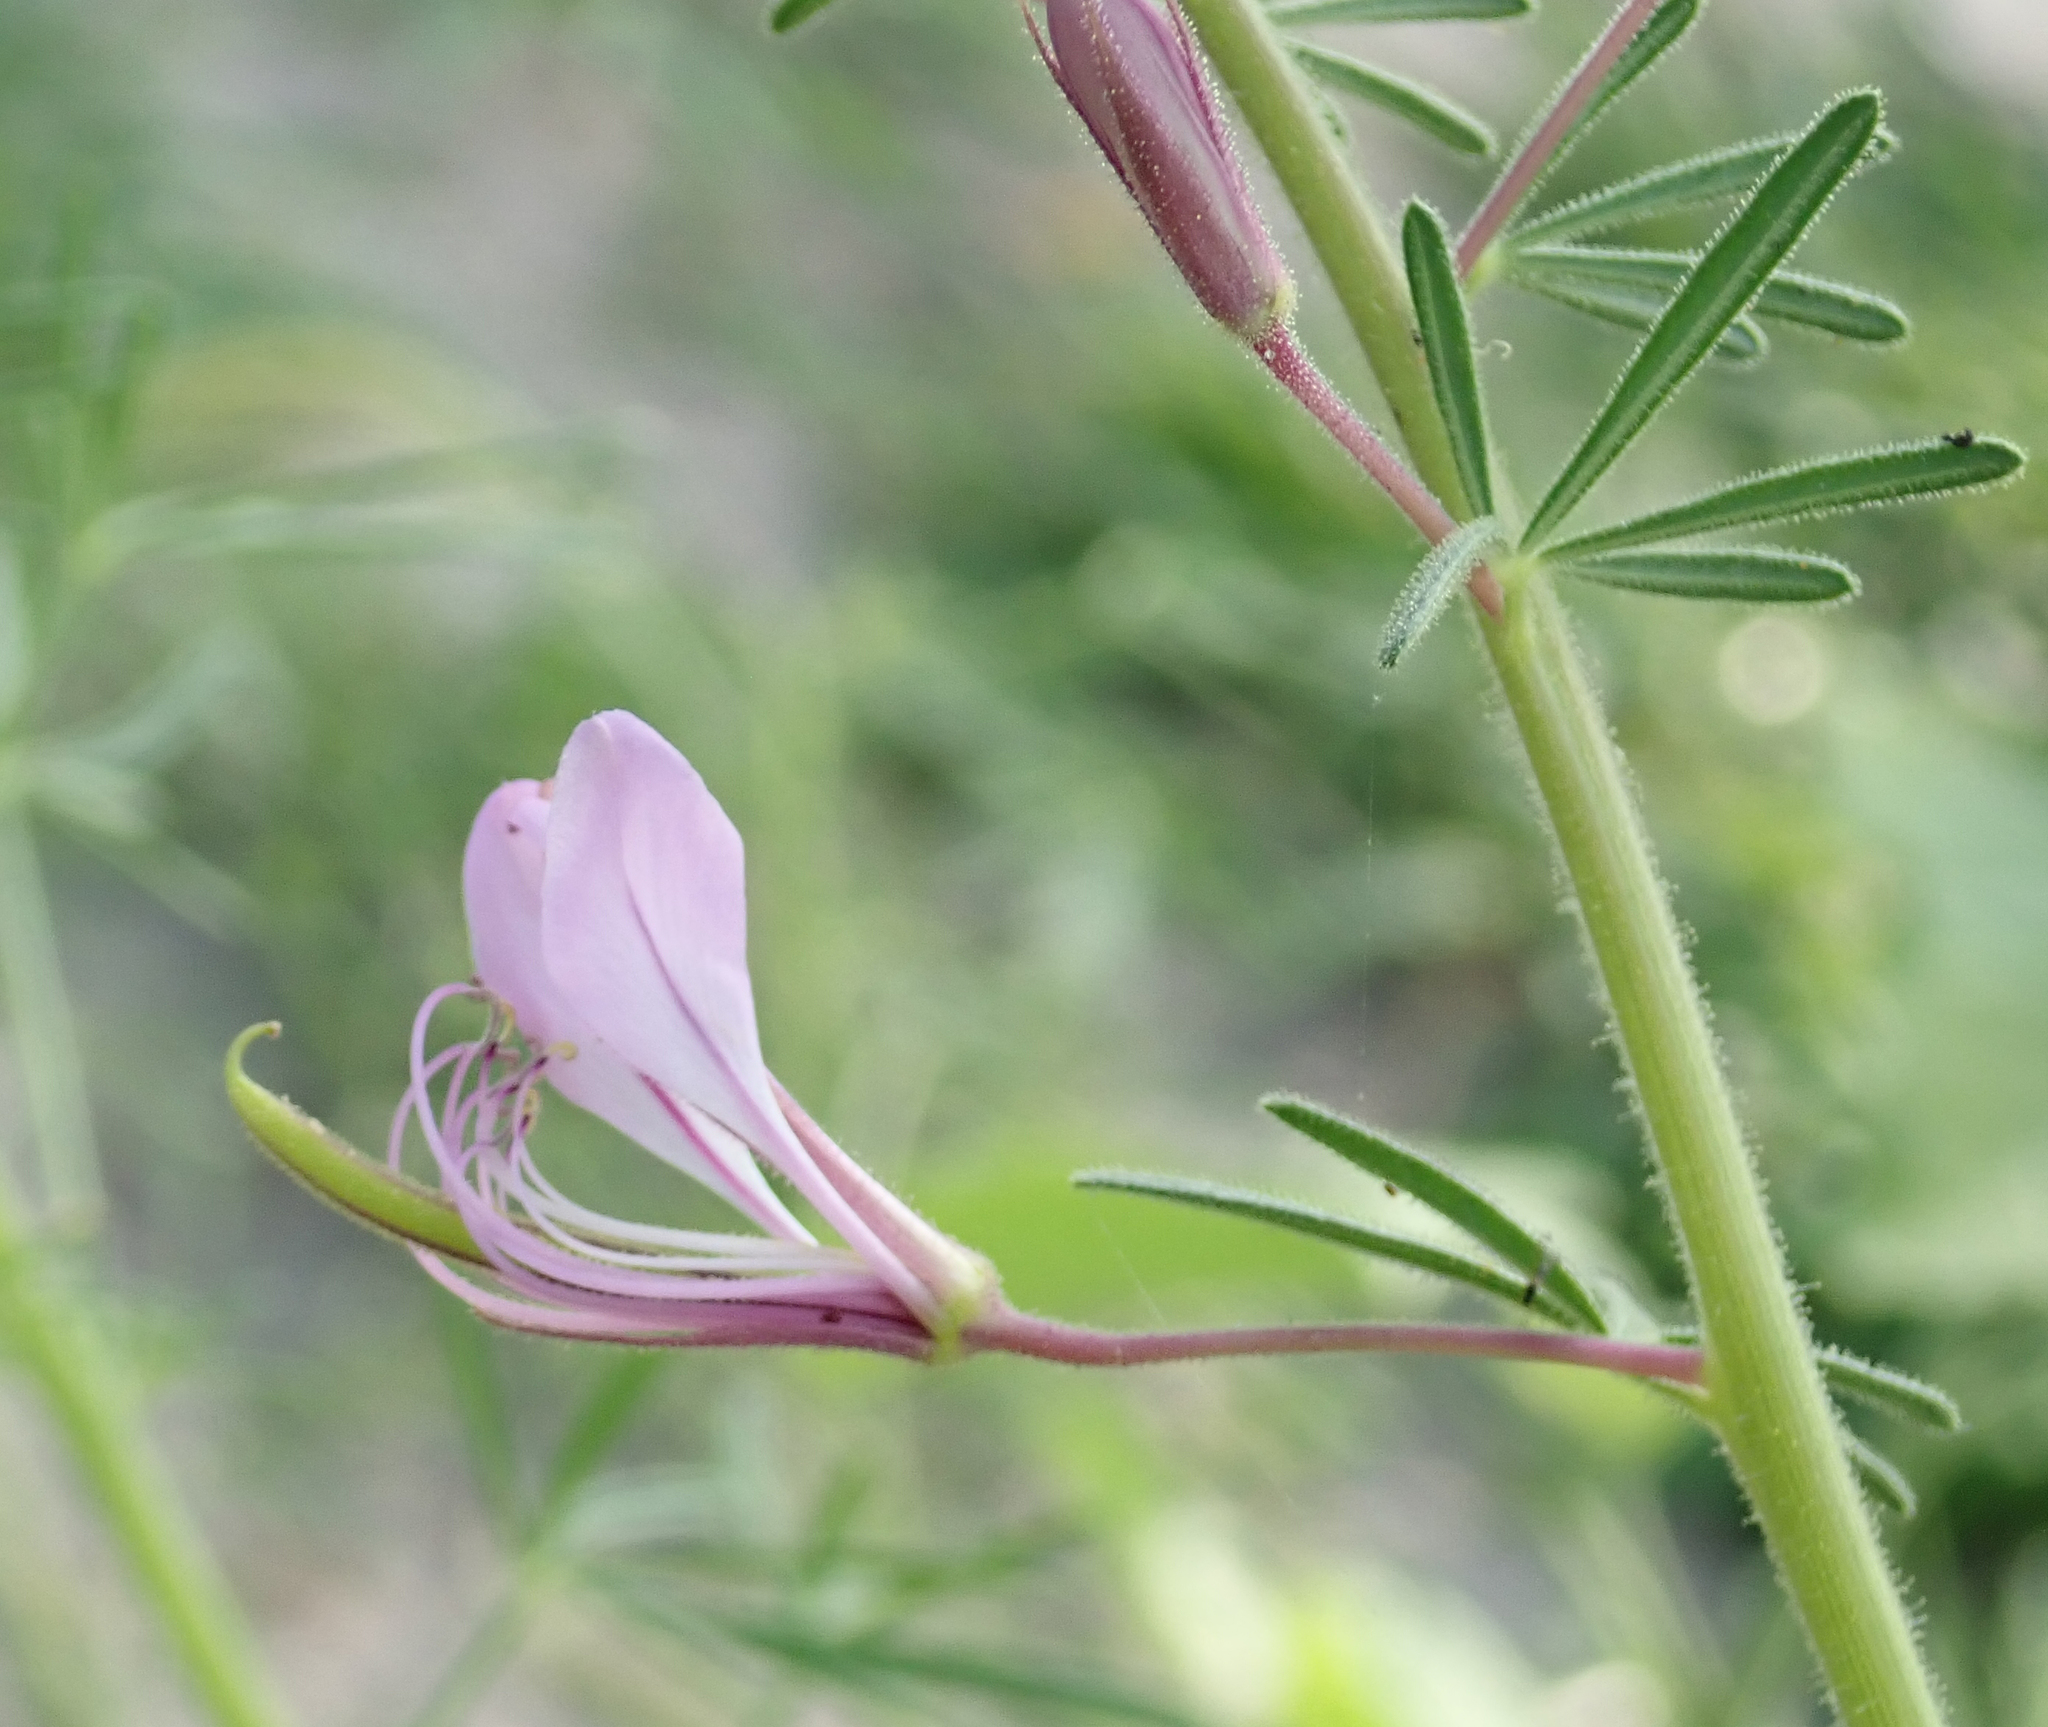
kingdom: Plantae
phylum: Tracheophyta
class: Magnoliopsida
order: Brassicales
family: Cleomaceae
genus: Sieruela
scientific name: Sieruela
